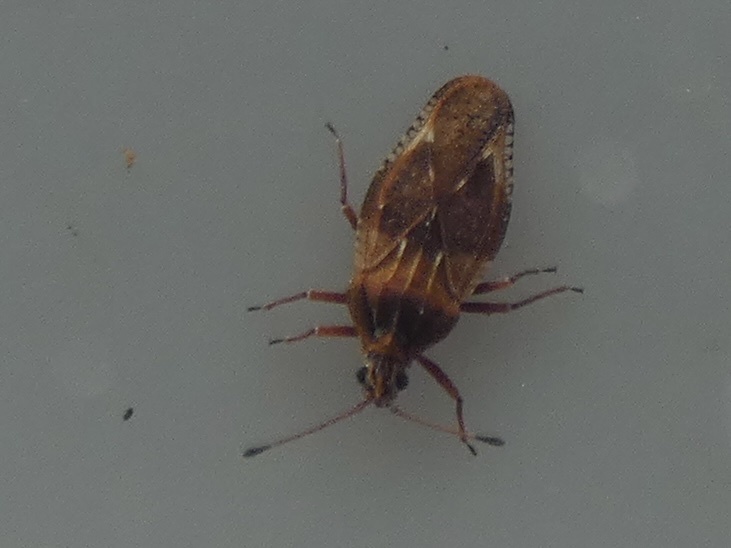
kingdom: Animalia
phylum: Arthropoda
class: Insecta
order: Hemiptera
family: Tingidae
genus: Physatocheila
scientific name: Physatocheila dumetorum
